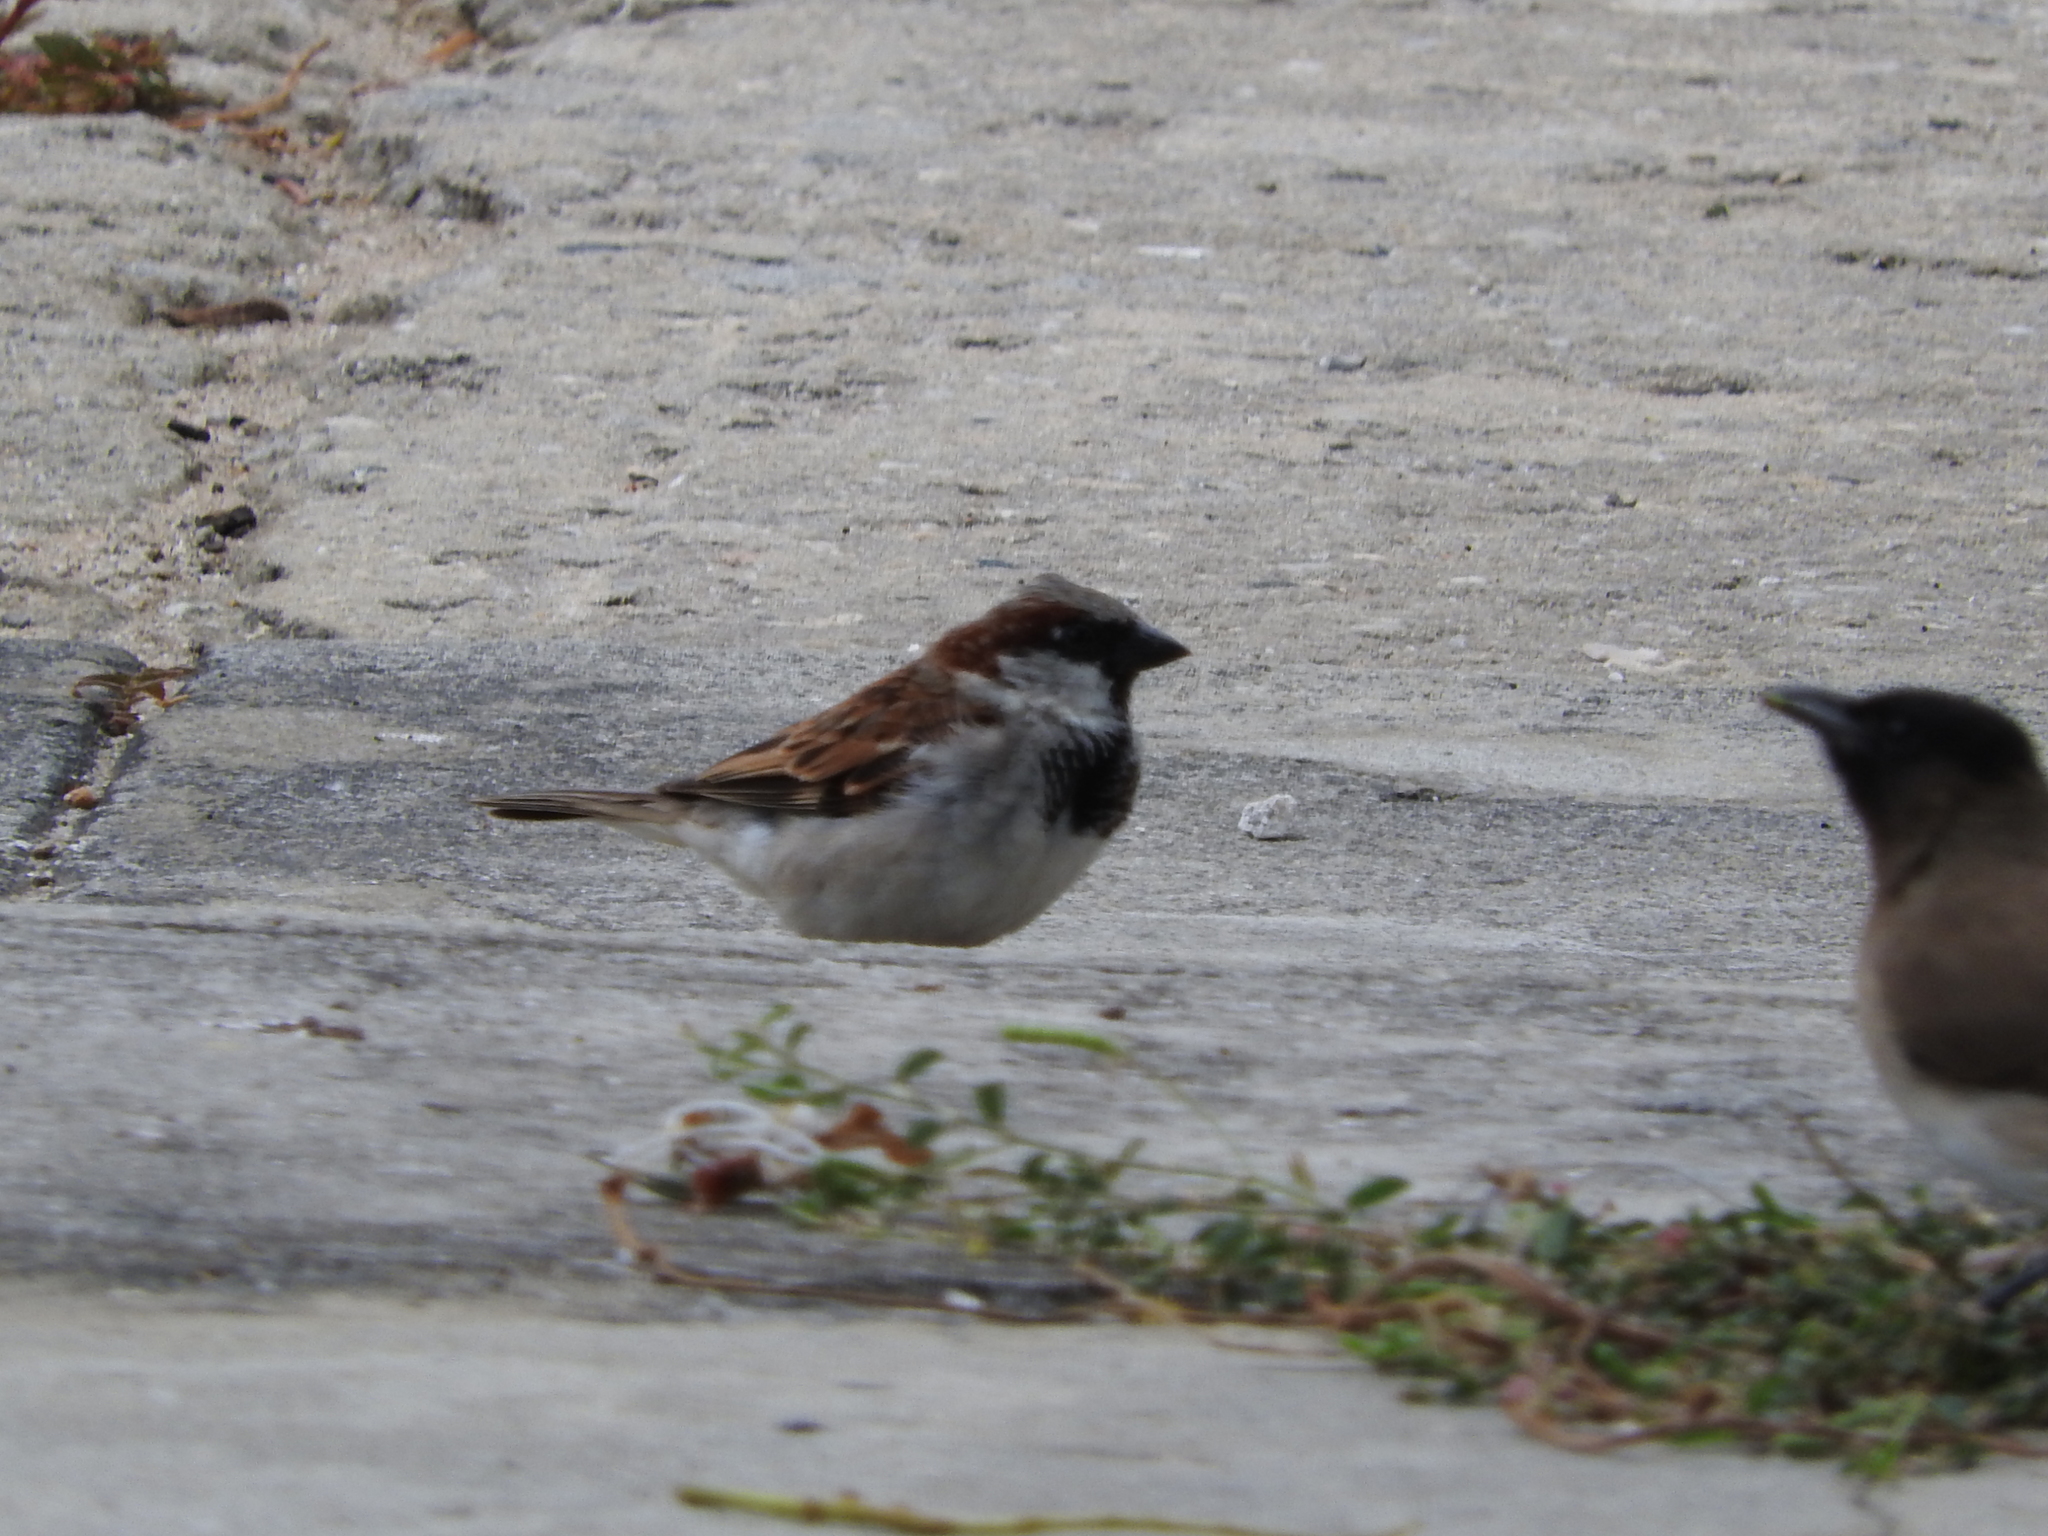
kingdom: Animalia
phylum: Chordata
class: Aves
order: Passeriformes
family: Passeridae
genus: Passer
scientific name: Passer domesticus
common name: House sparrow
